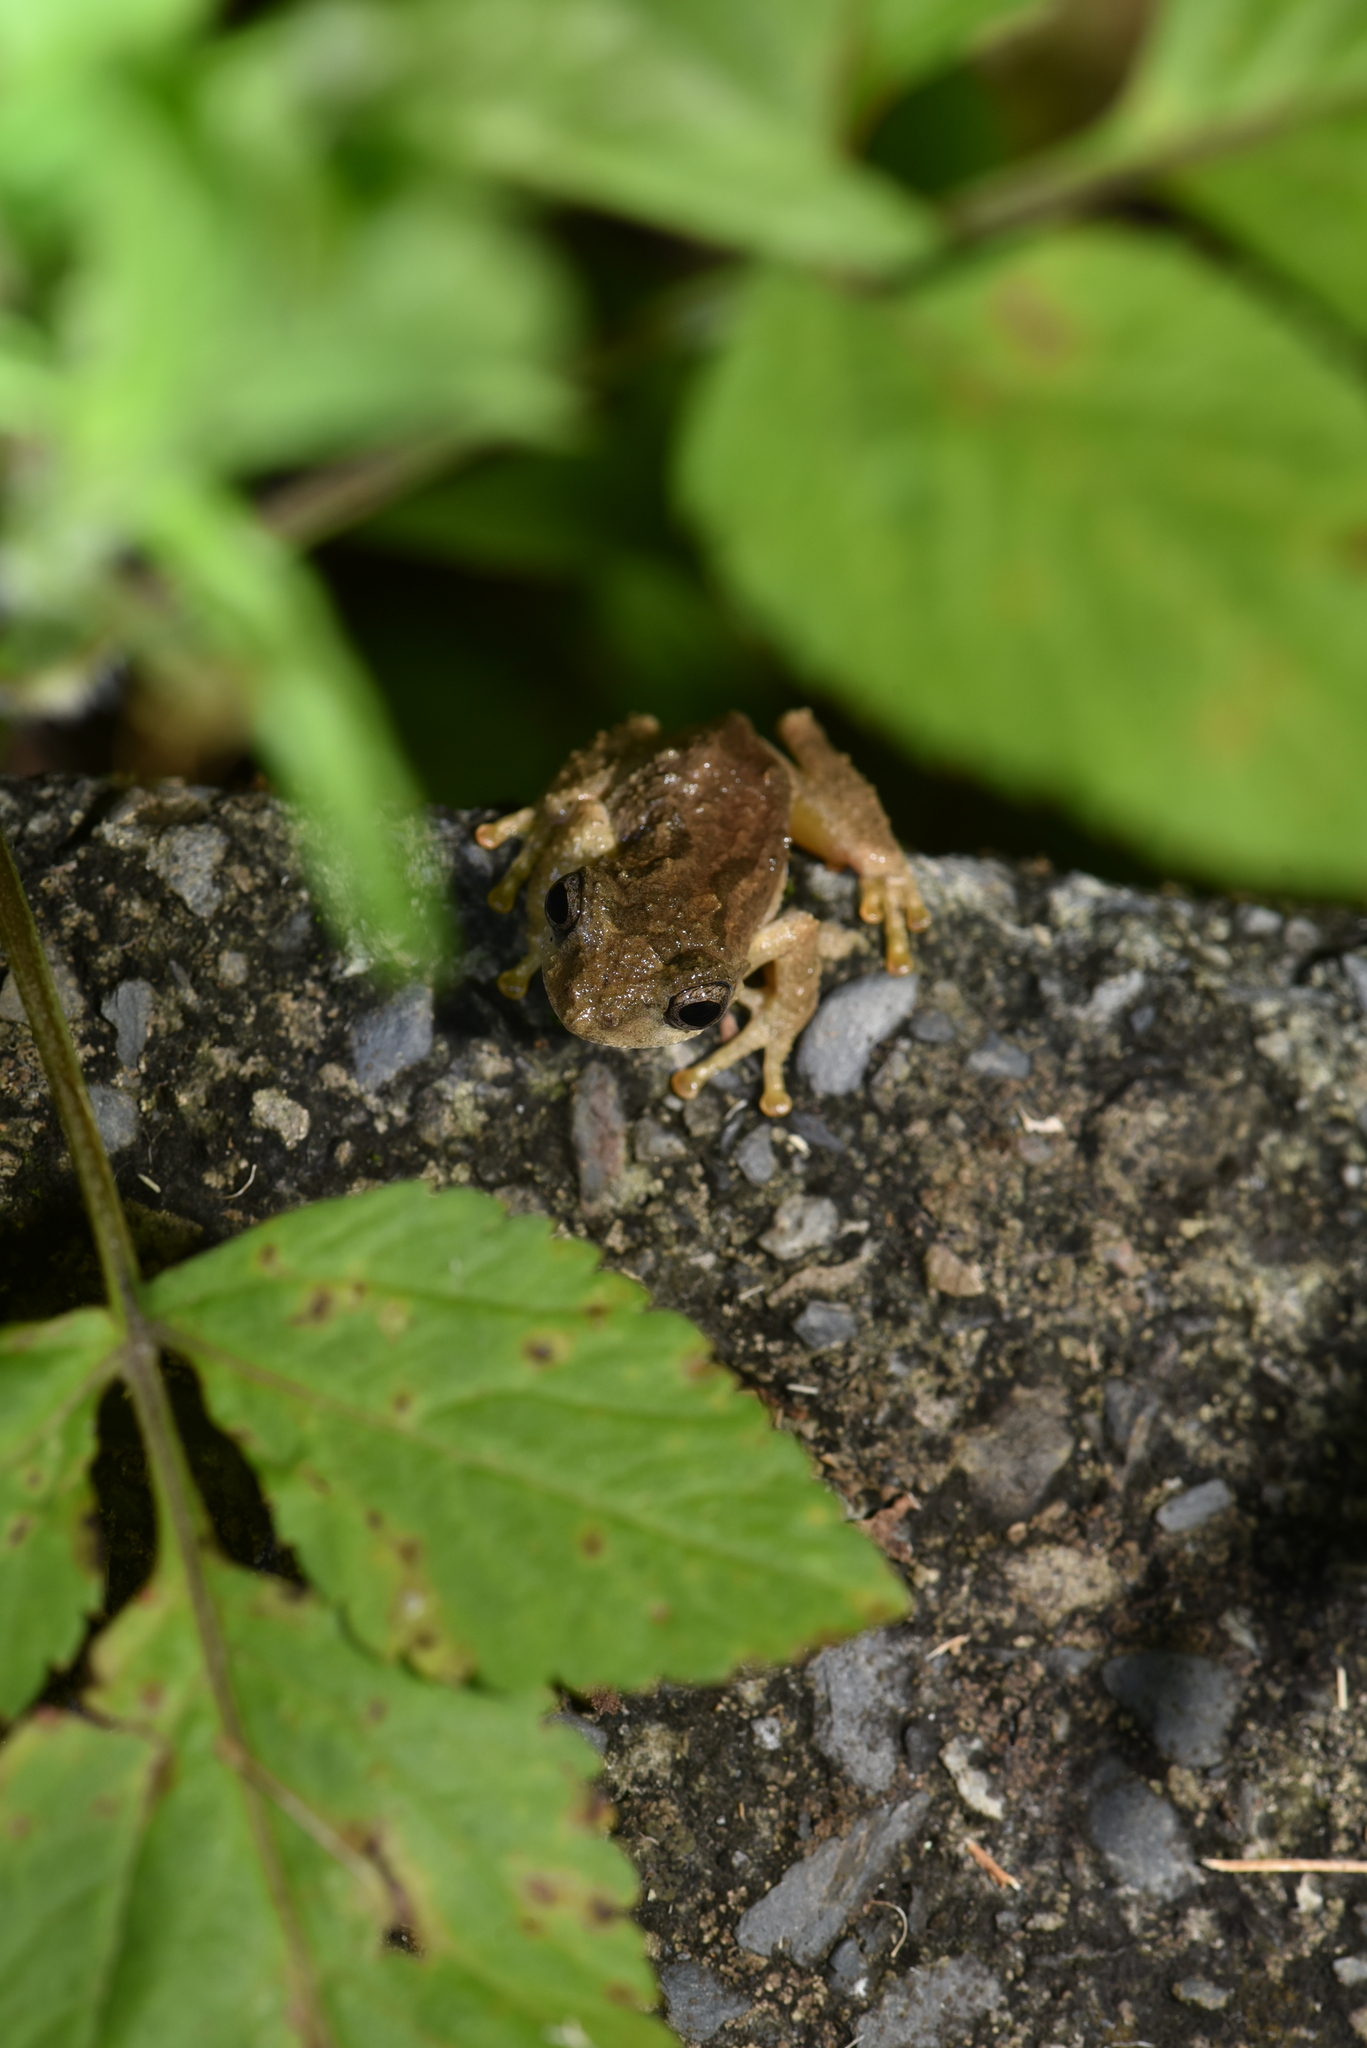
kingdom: Animalia
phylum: Chordata
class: Amphibia
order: Anura
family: Rhacophoridae
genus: Kurixalus
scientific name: Kurixalus idiootocus
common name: Temple treefrog
